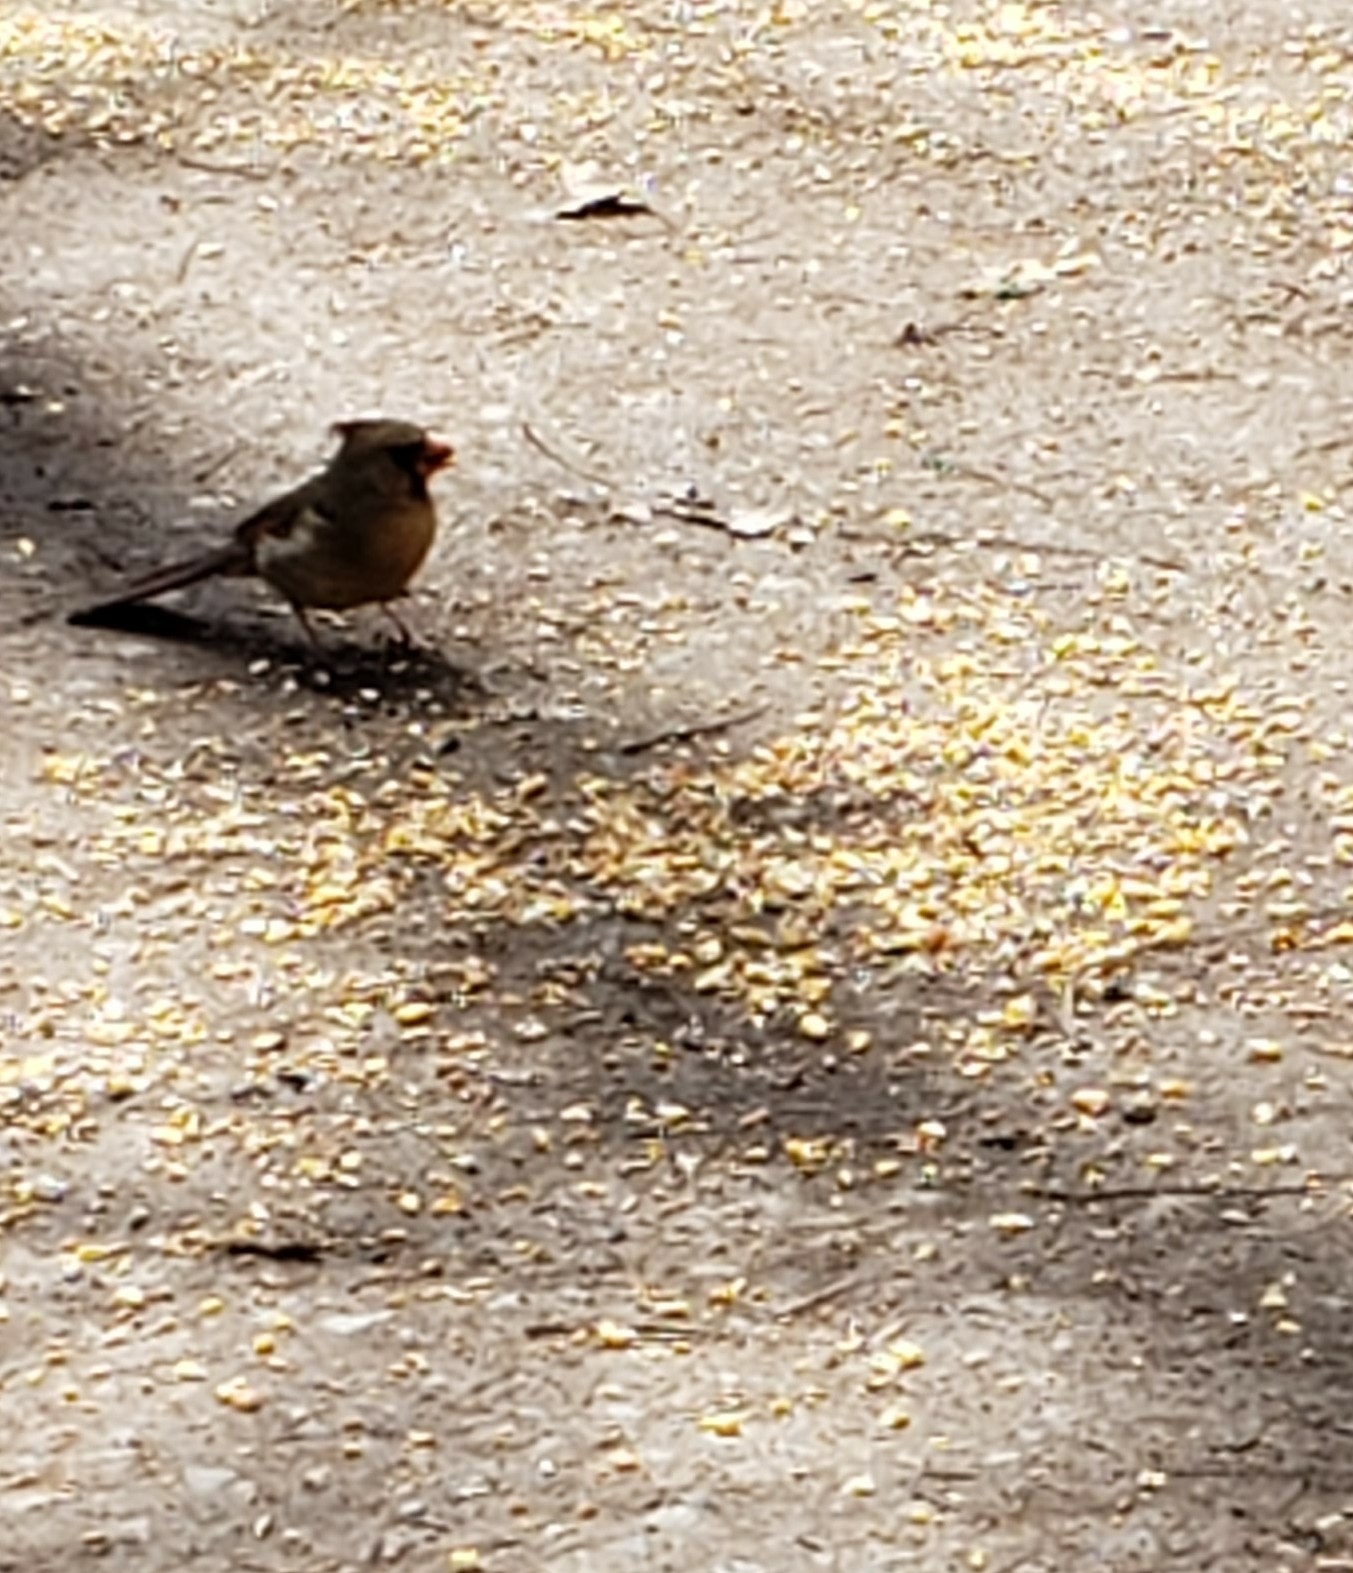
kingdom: Animalia
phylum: Chordata
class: Aves
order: Passeriformes
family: Cardinalidae
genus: Cardinalis
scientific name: Cardinalis cardinalis
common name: Northern cardinal
